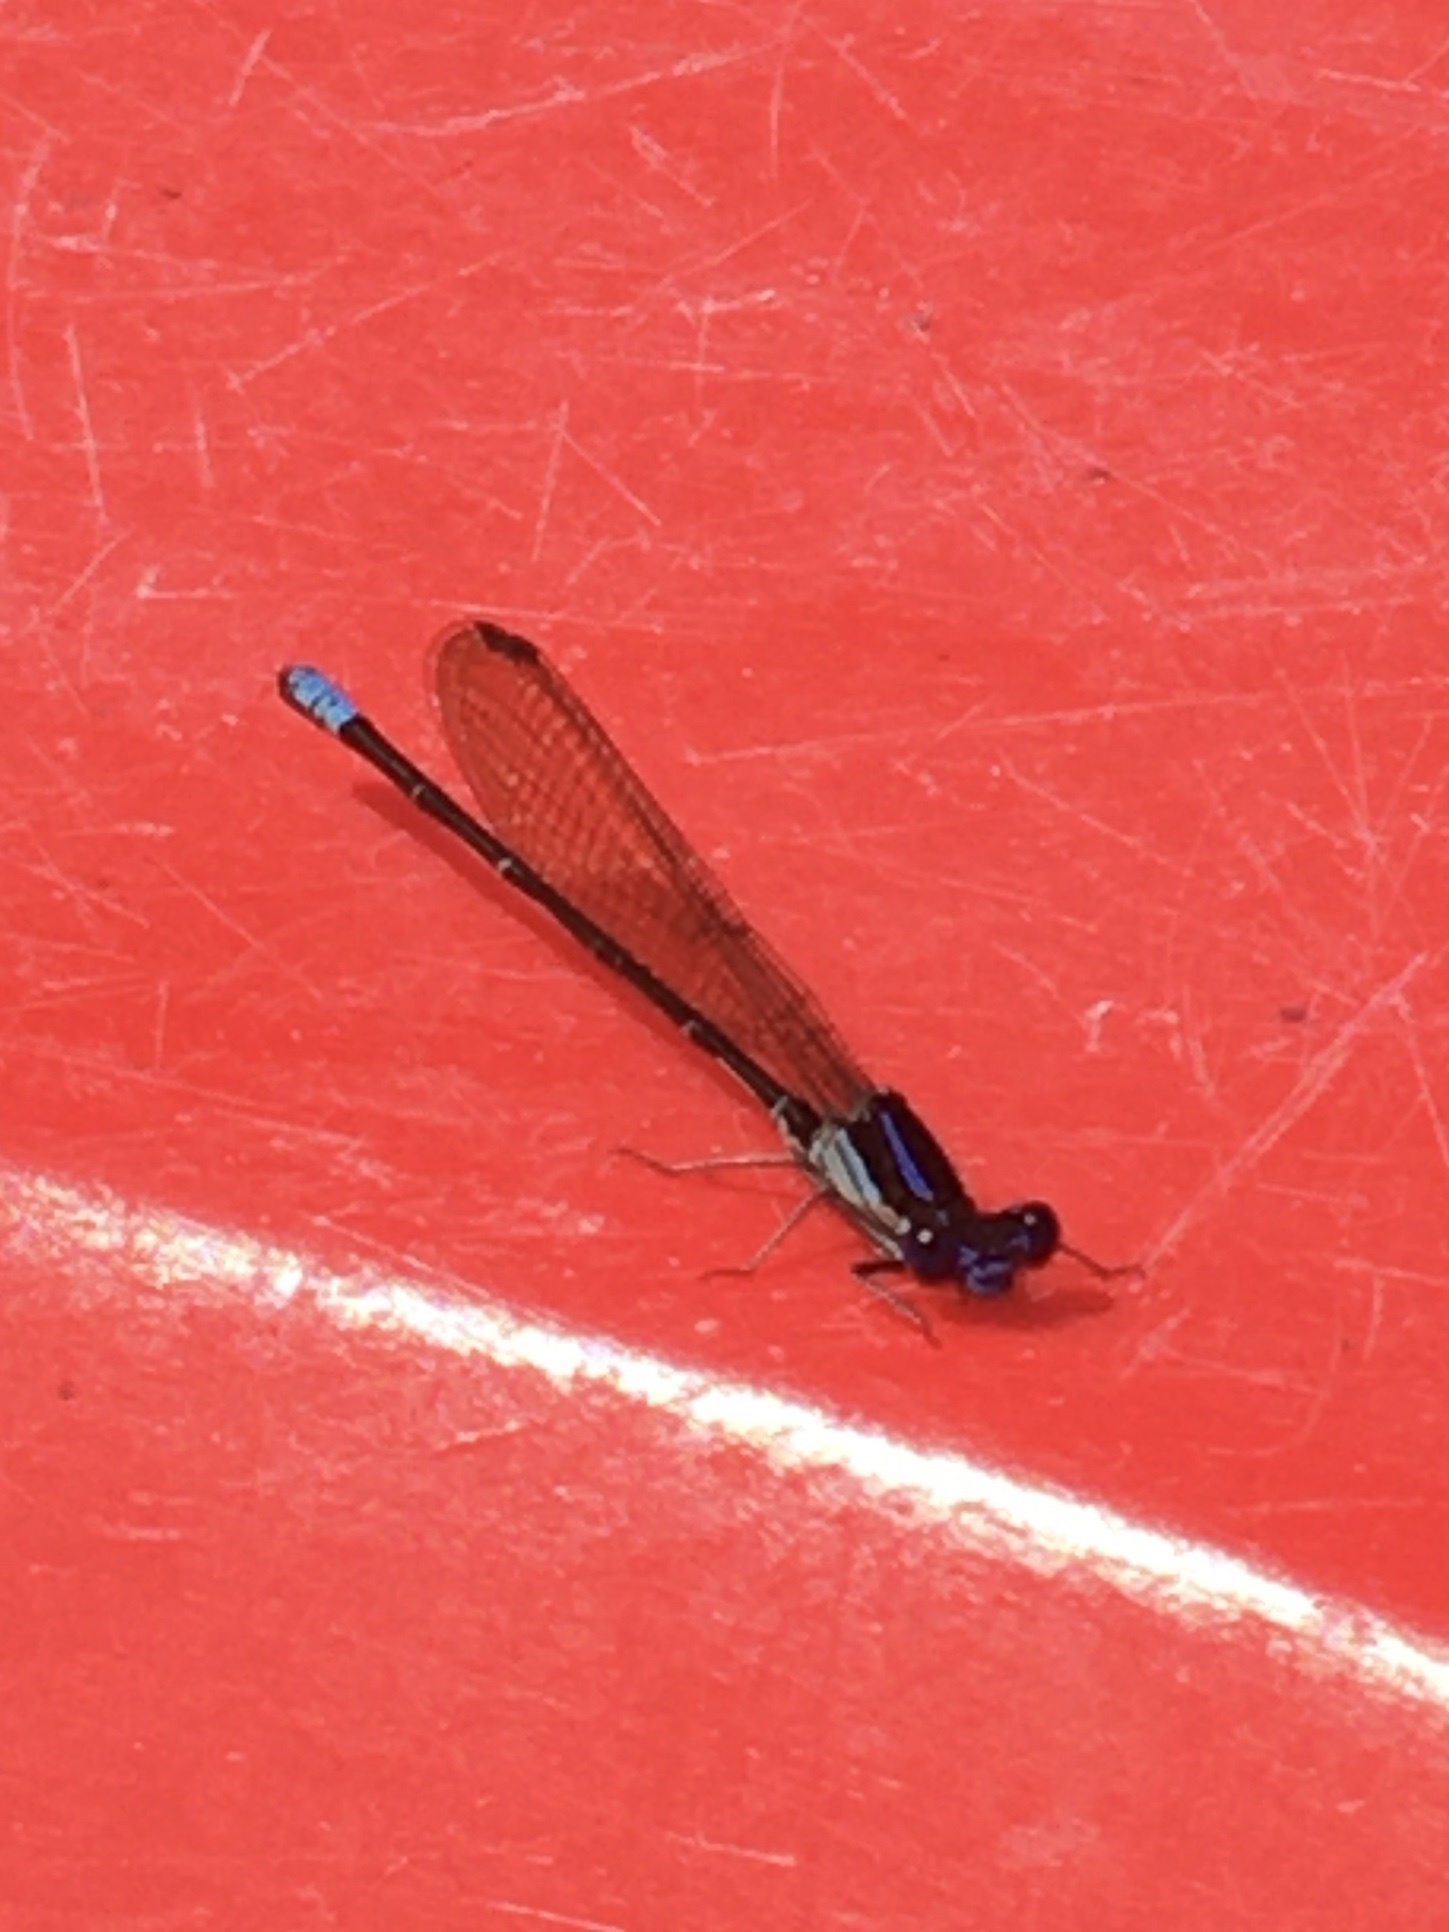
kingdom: Animalia
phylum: Arthropoda
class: Insecta
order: Odonata
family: Coenagrionidae
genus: Argia
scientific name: Argia sedula
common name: Blue-ringed dancer
